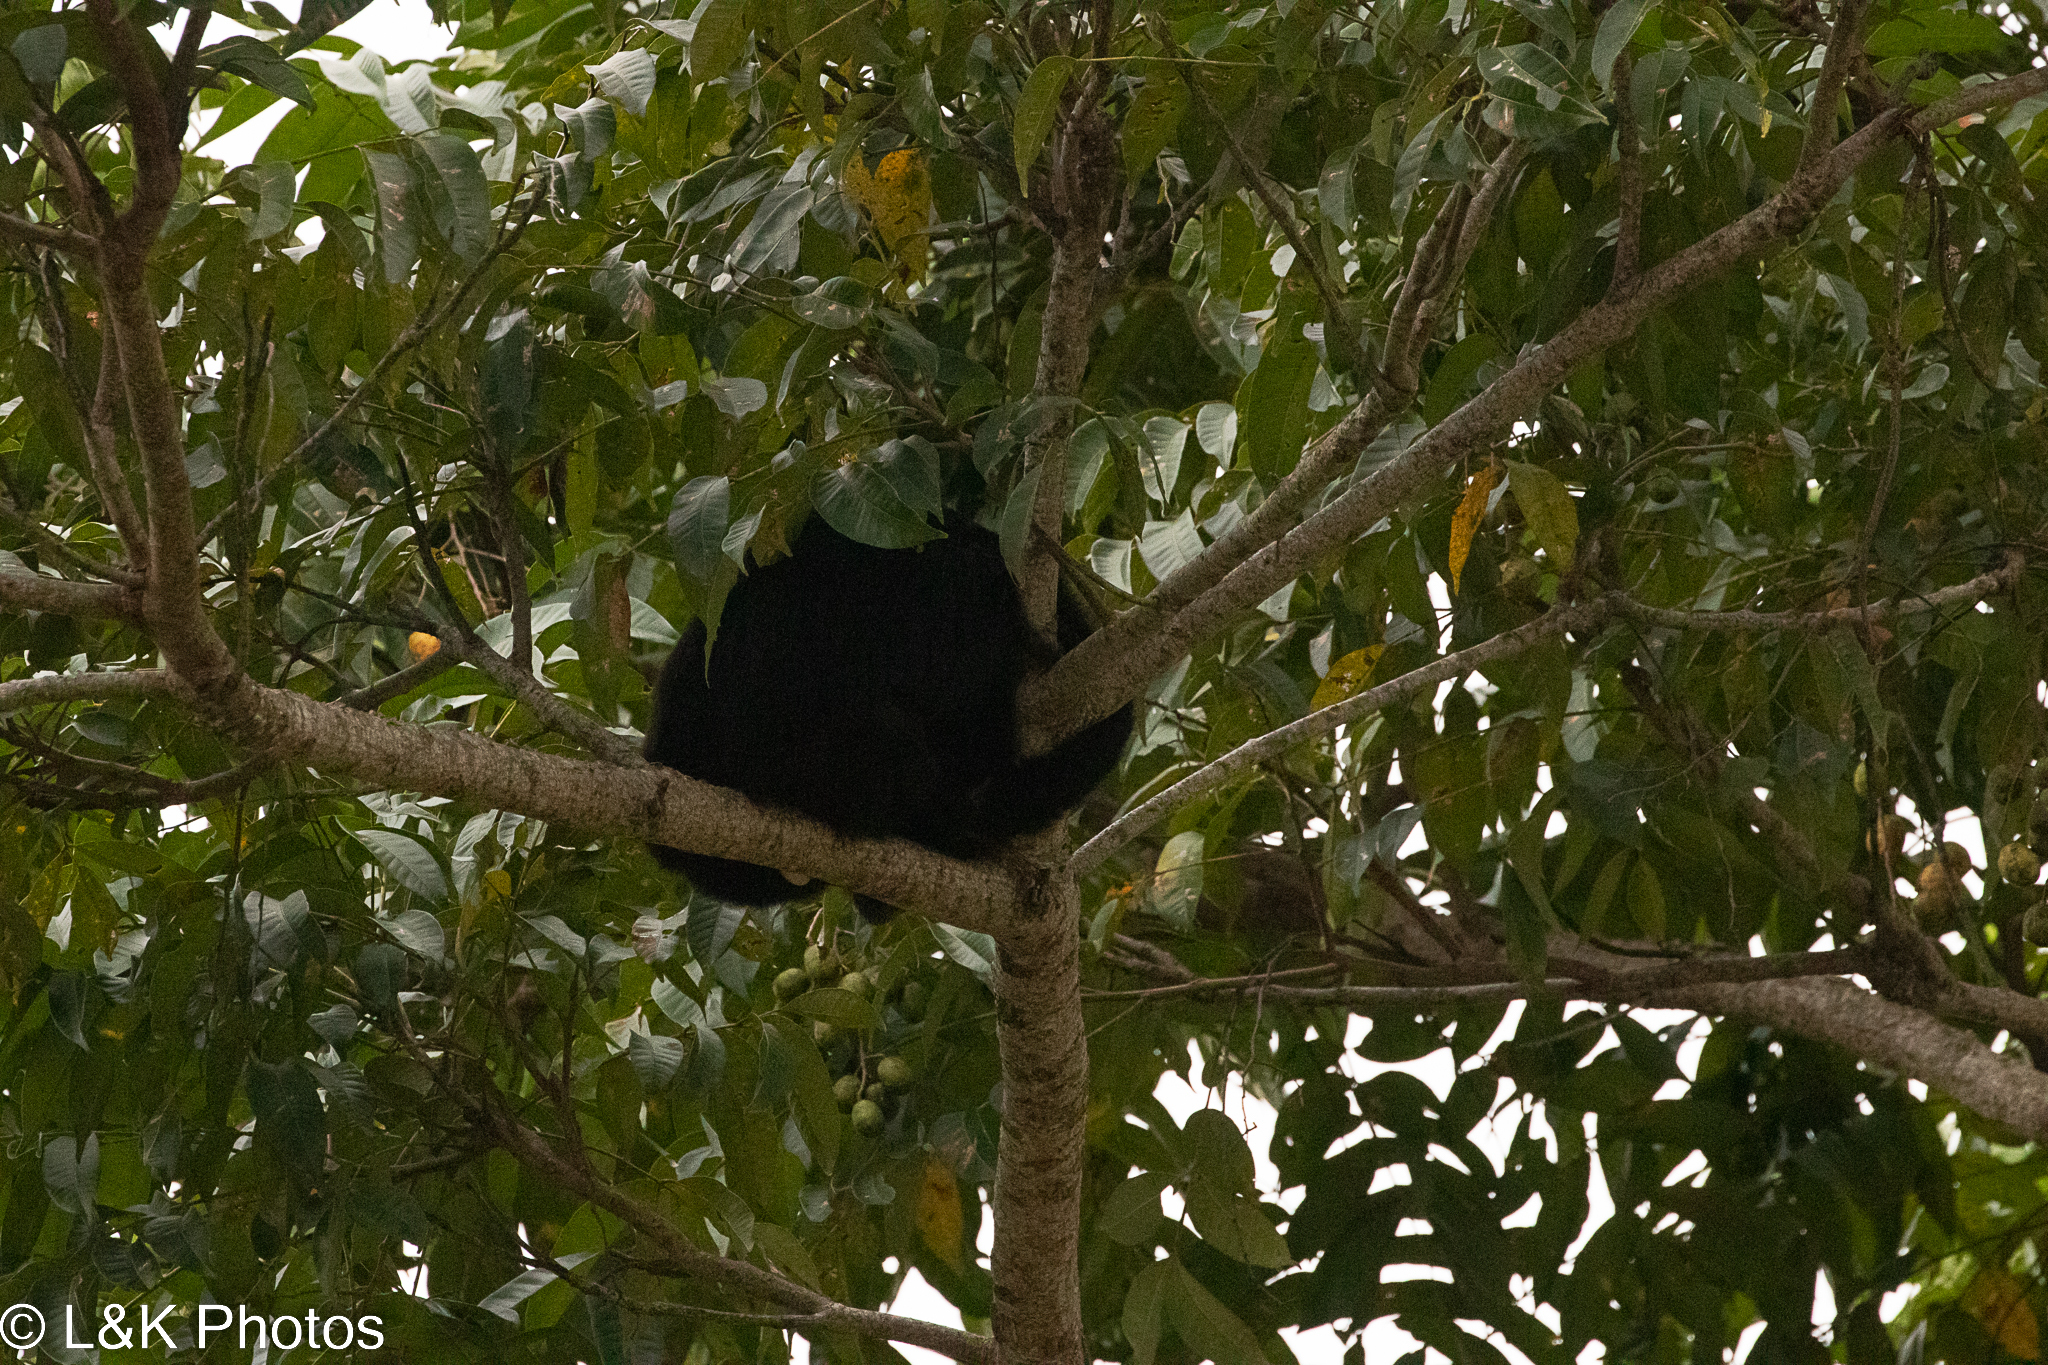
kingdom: Animalia
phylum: Chordata
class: Mammalia
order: Primates
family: Atelidae
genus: Alouatta
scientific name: Alouatta pigra
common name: Guatemalan black howler
